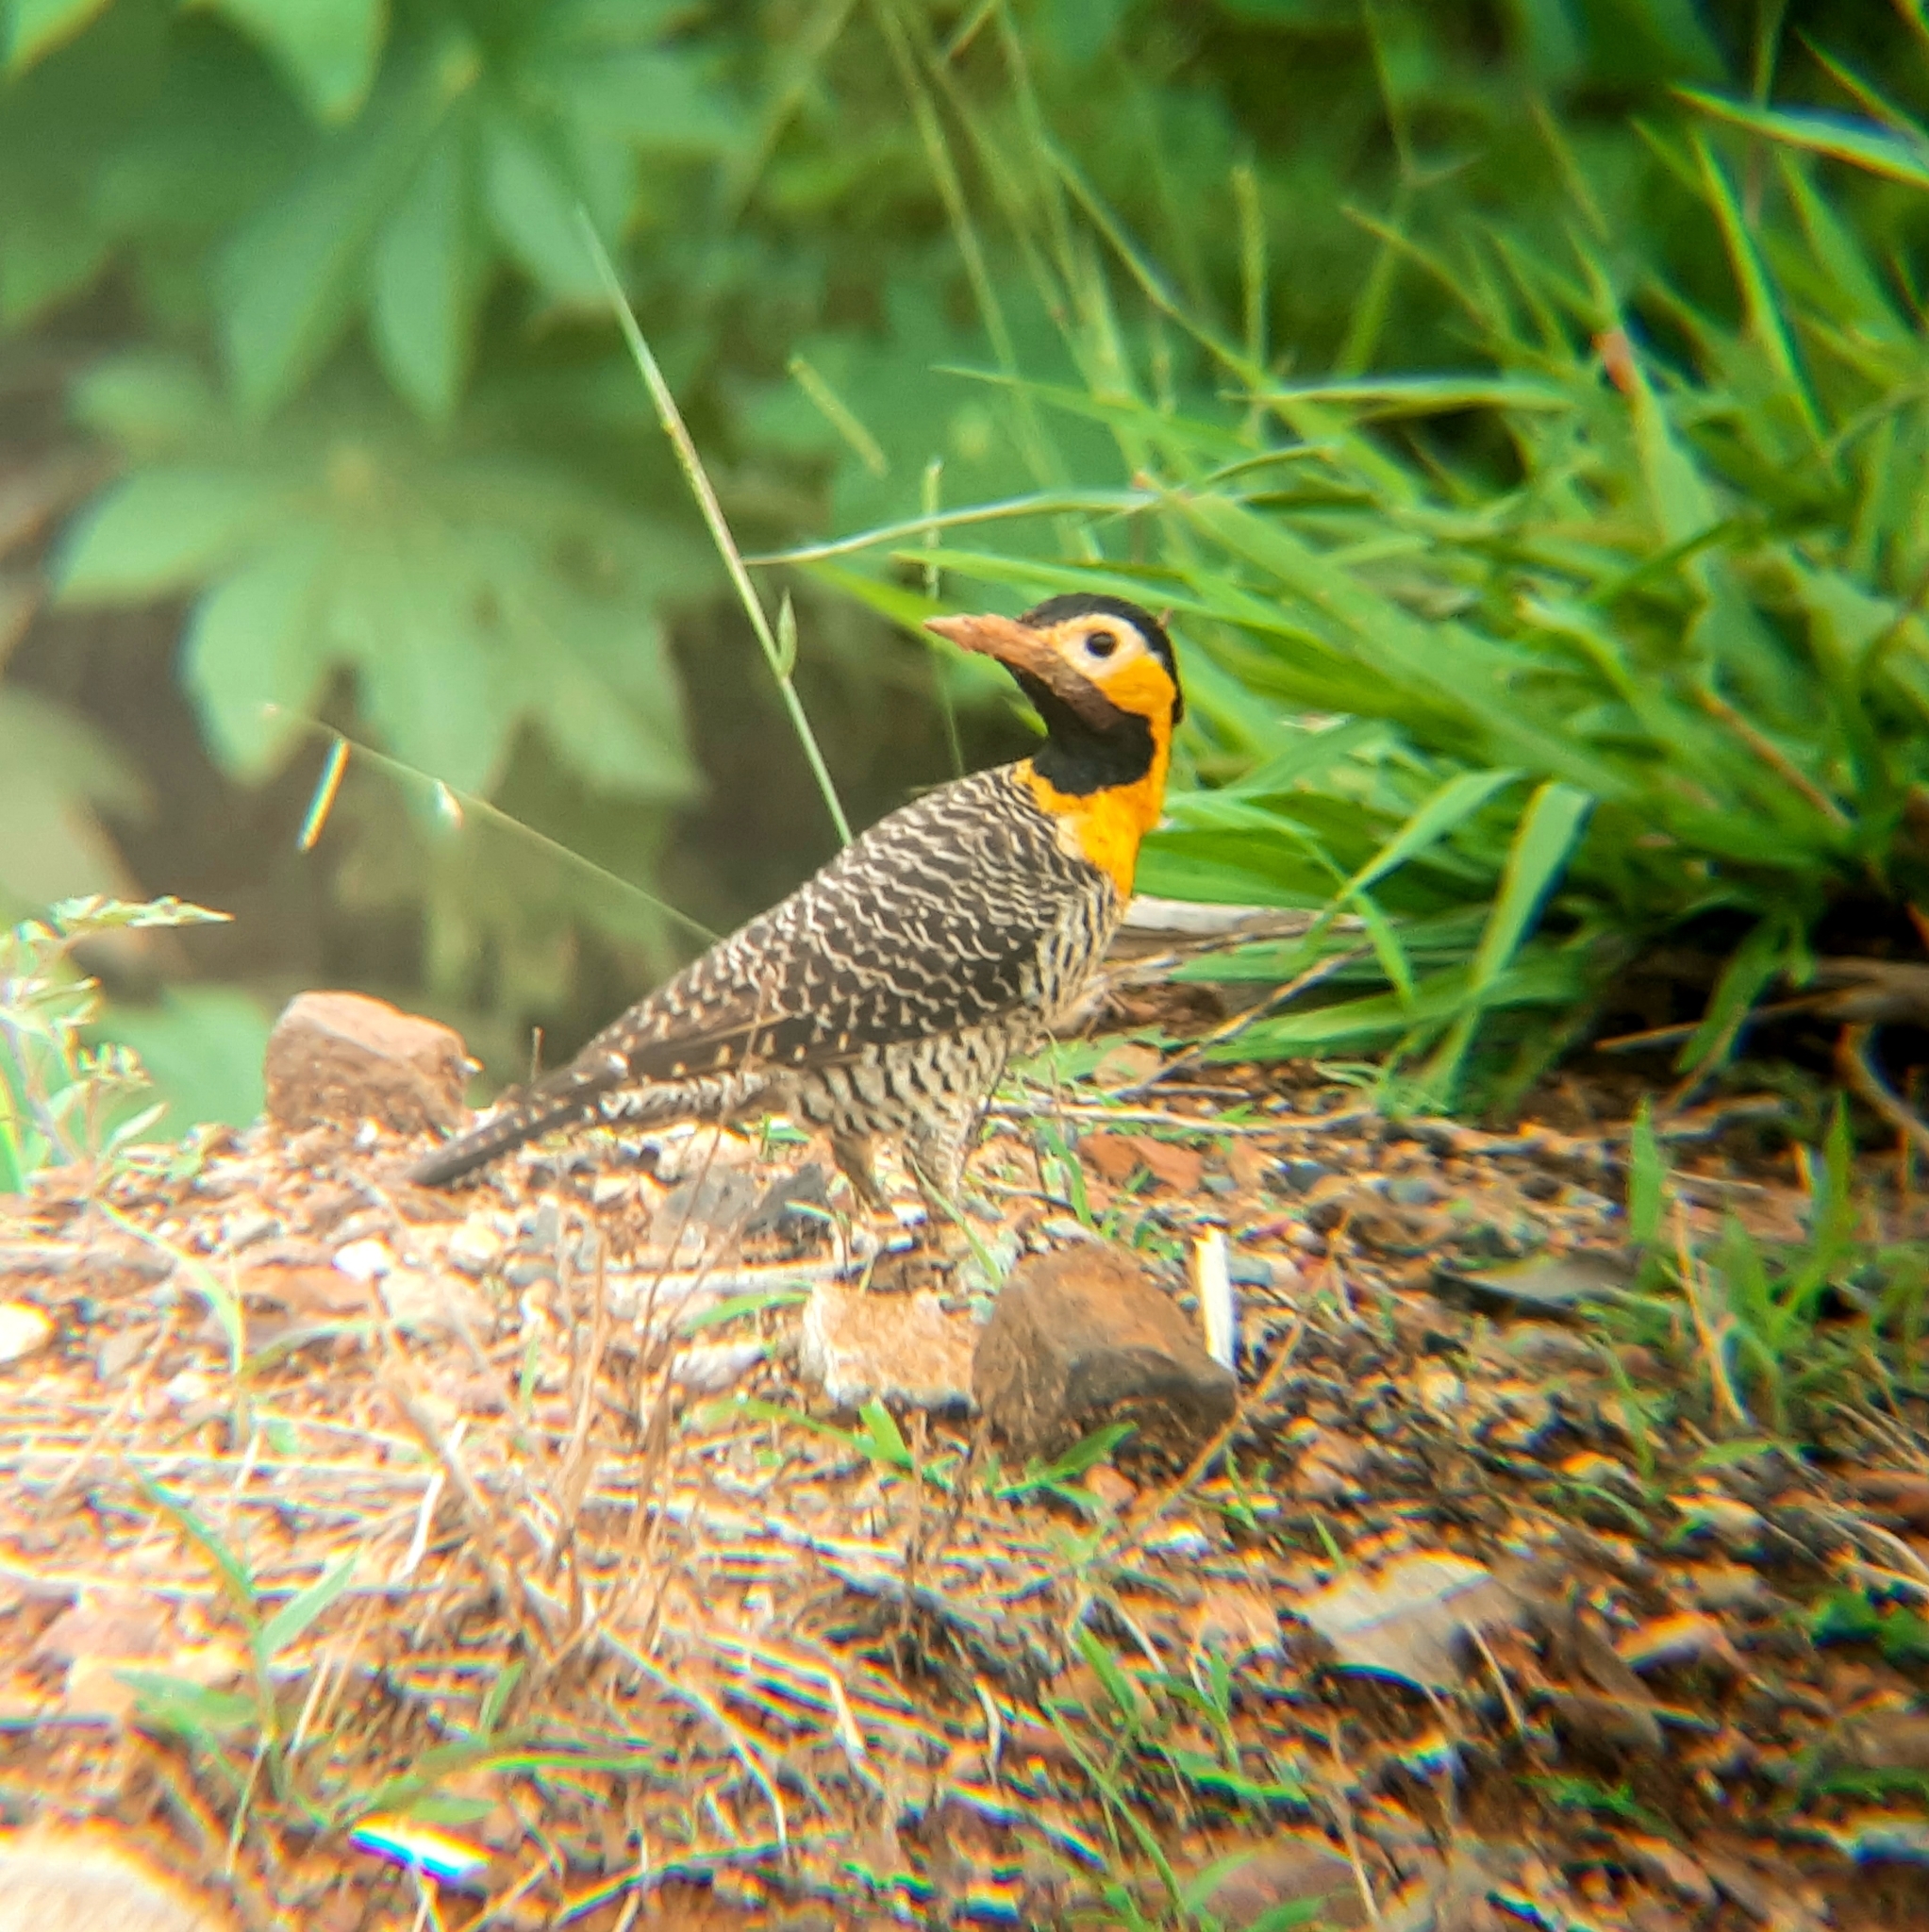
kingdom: Animalia
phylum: Chordata
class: Aves
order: Piciformes
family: Picidae
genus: Colaptes
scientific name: Colaptes campestris
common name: Campo flicker
